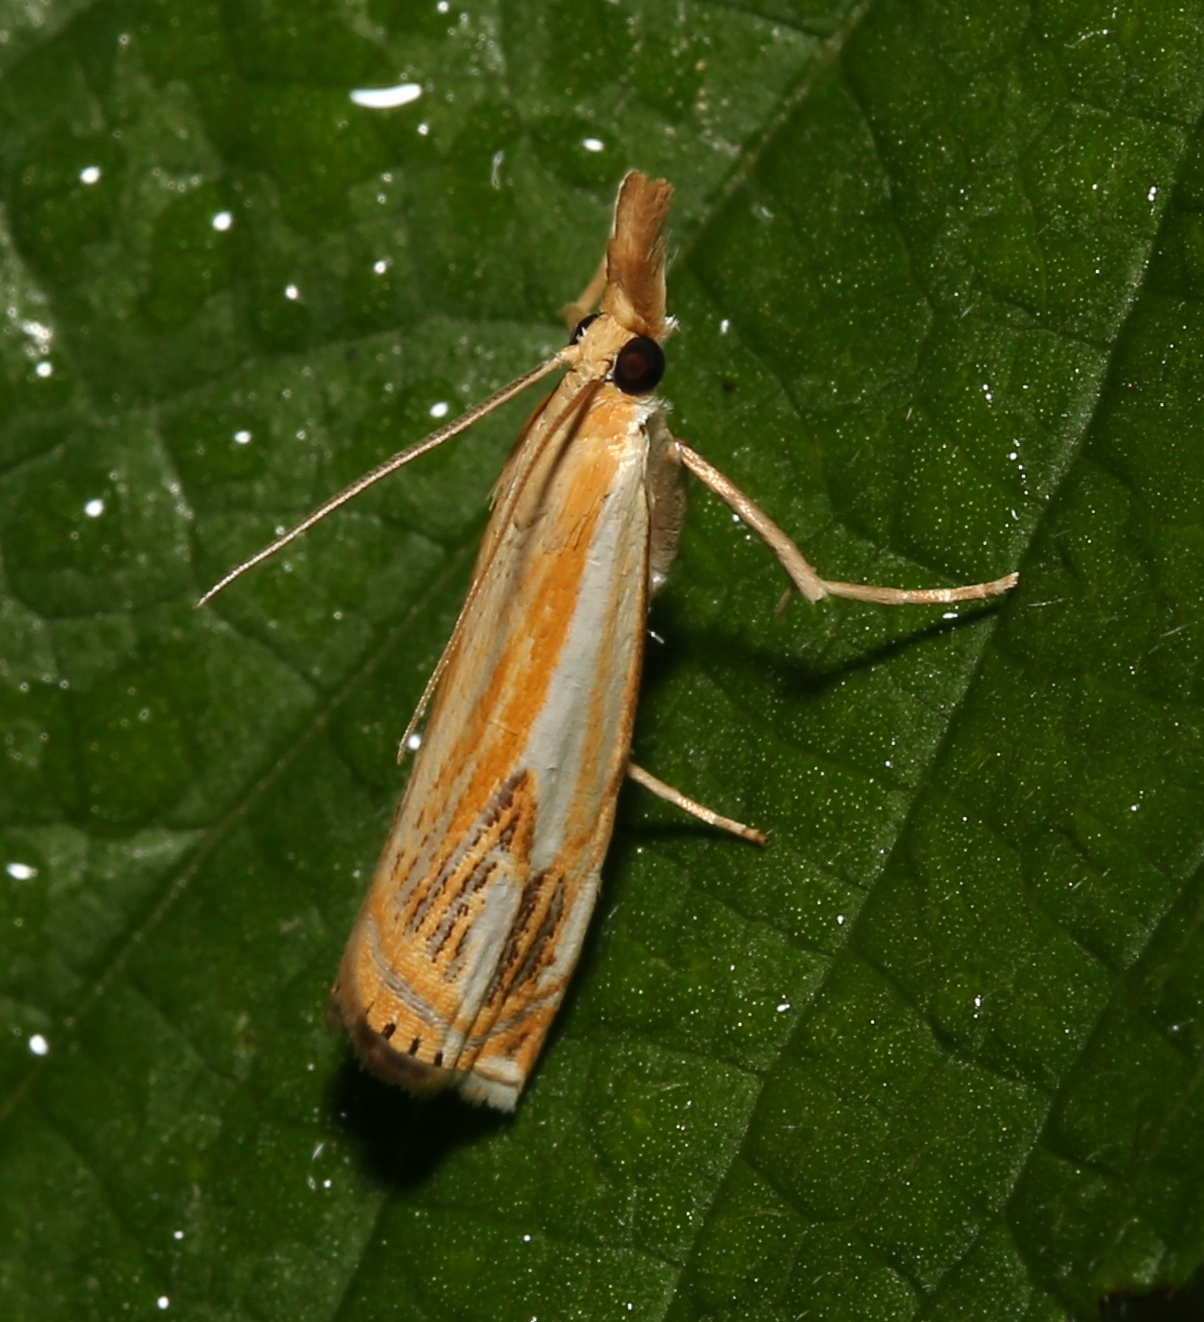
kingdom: Animalia
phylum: Arthropoda
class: Insecta
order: Lepidoptera
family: Crambidae
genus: Crambus
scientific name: Crambus agitatellus
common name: Double-banded grass-veneer
